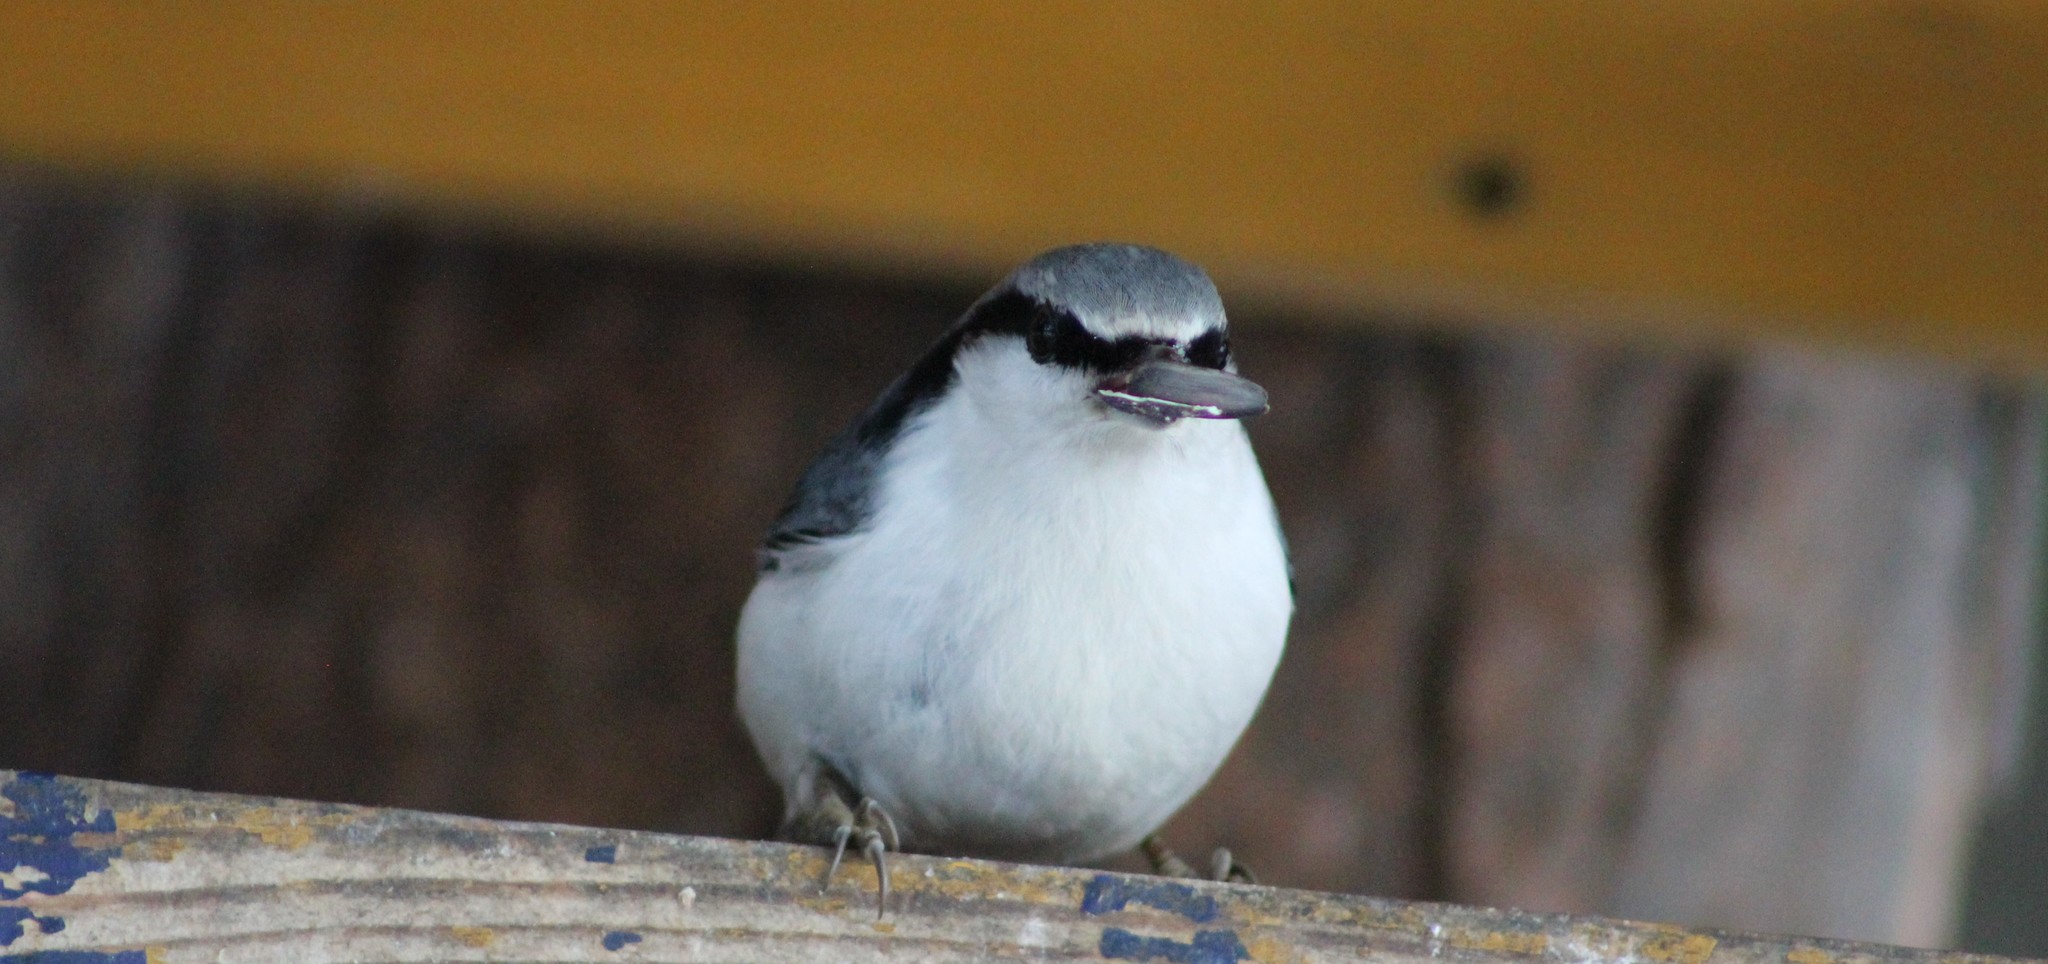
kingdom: Animalia
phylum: Chordata
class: Aves
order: Passeriformes
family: Sittidae
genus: Sitta
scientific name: Sitta europaea
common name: Eurasian nuthatch
